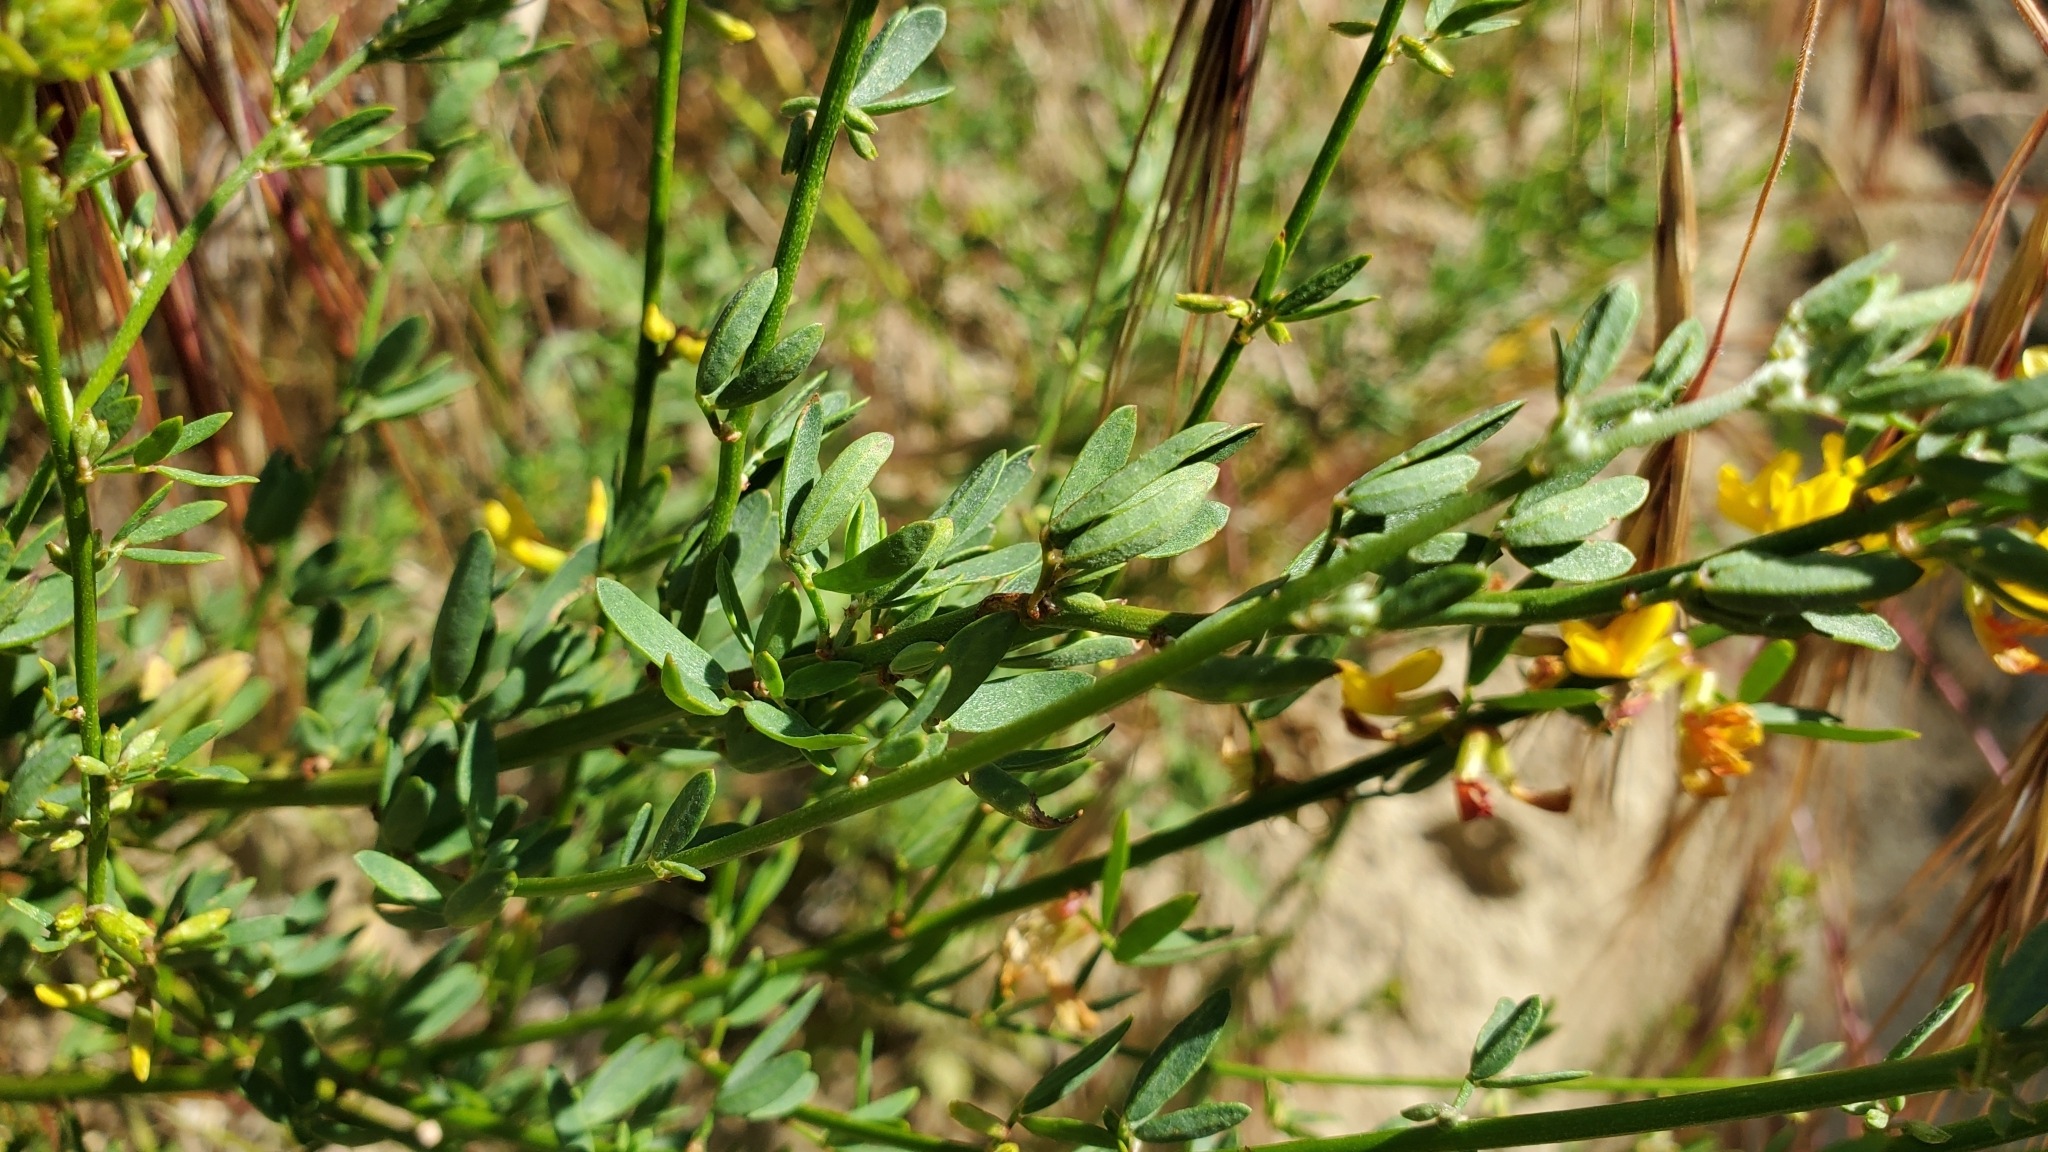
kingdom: Plantae
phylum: Tracheophyta
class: Magnoliopsida
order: Fabales
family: Fabaceae
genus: Acmispon
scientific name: Acmispon glaber
